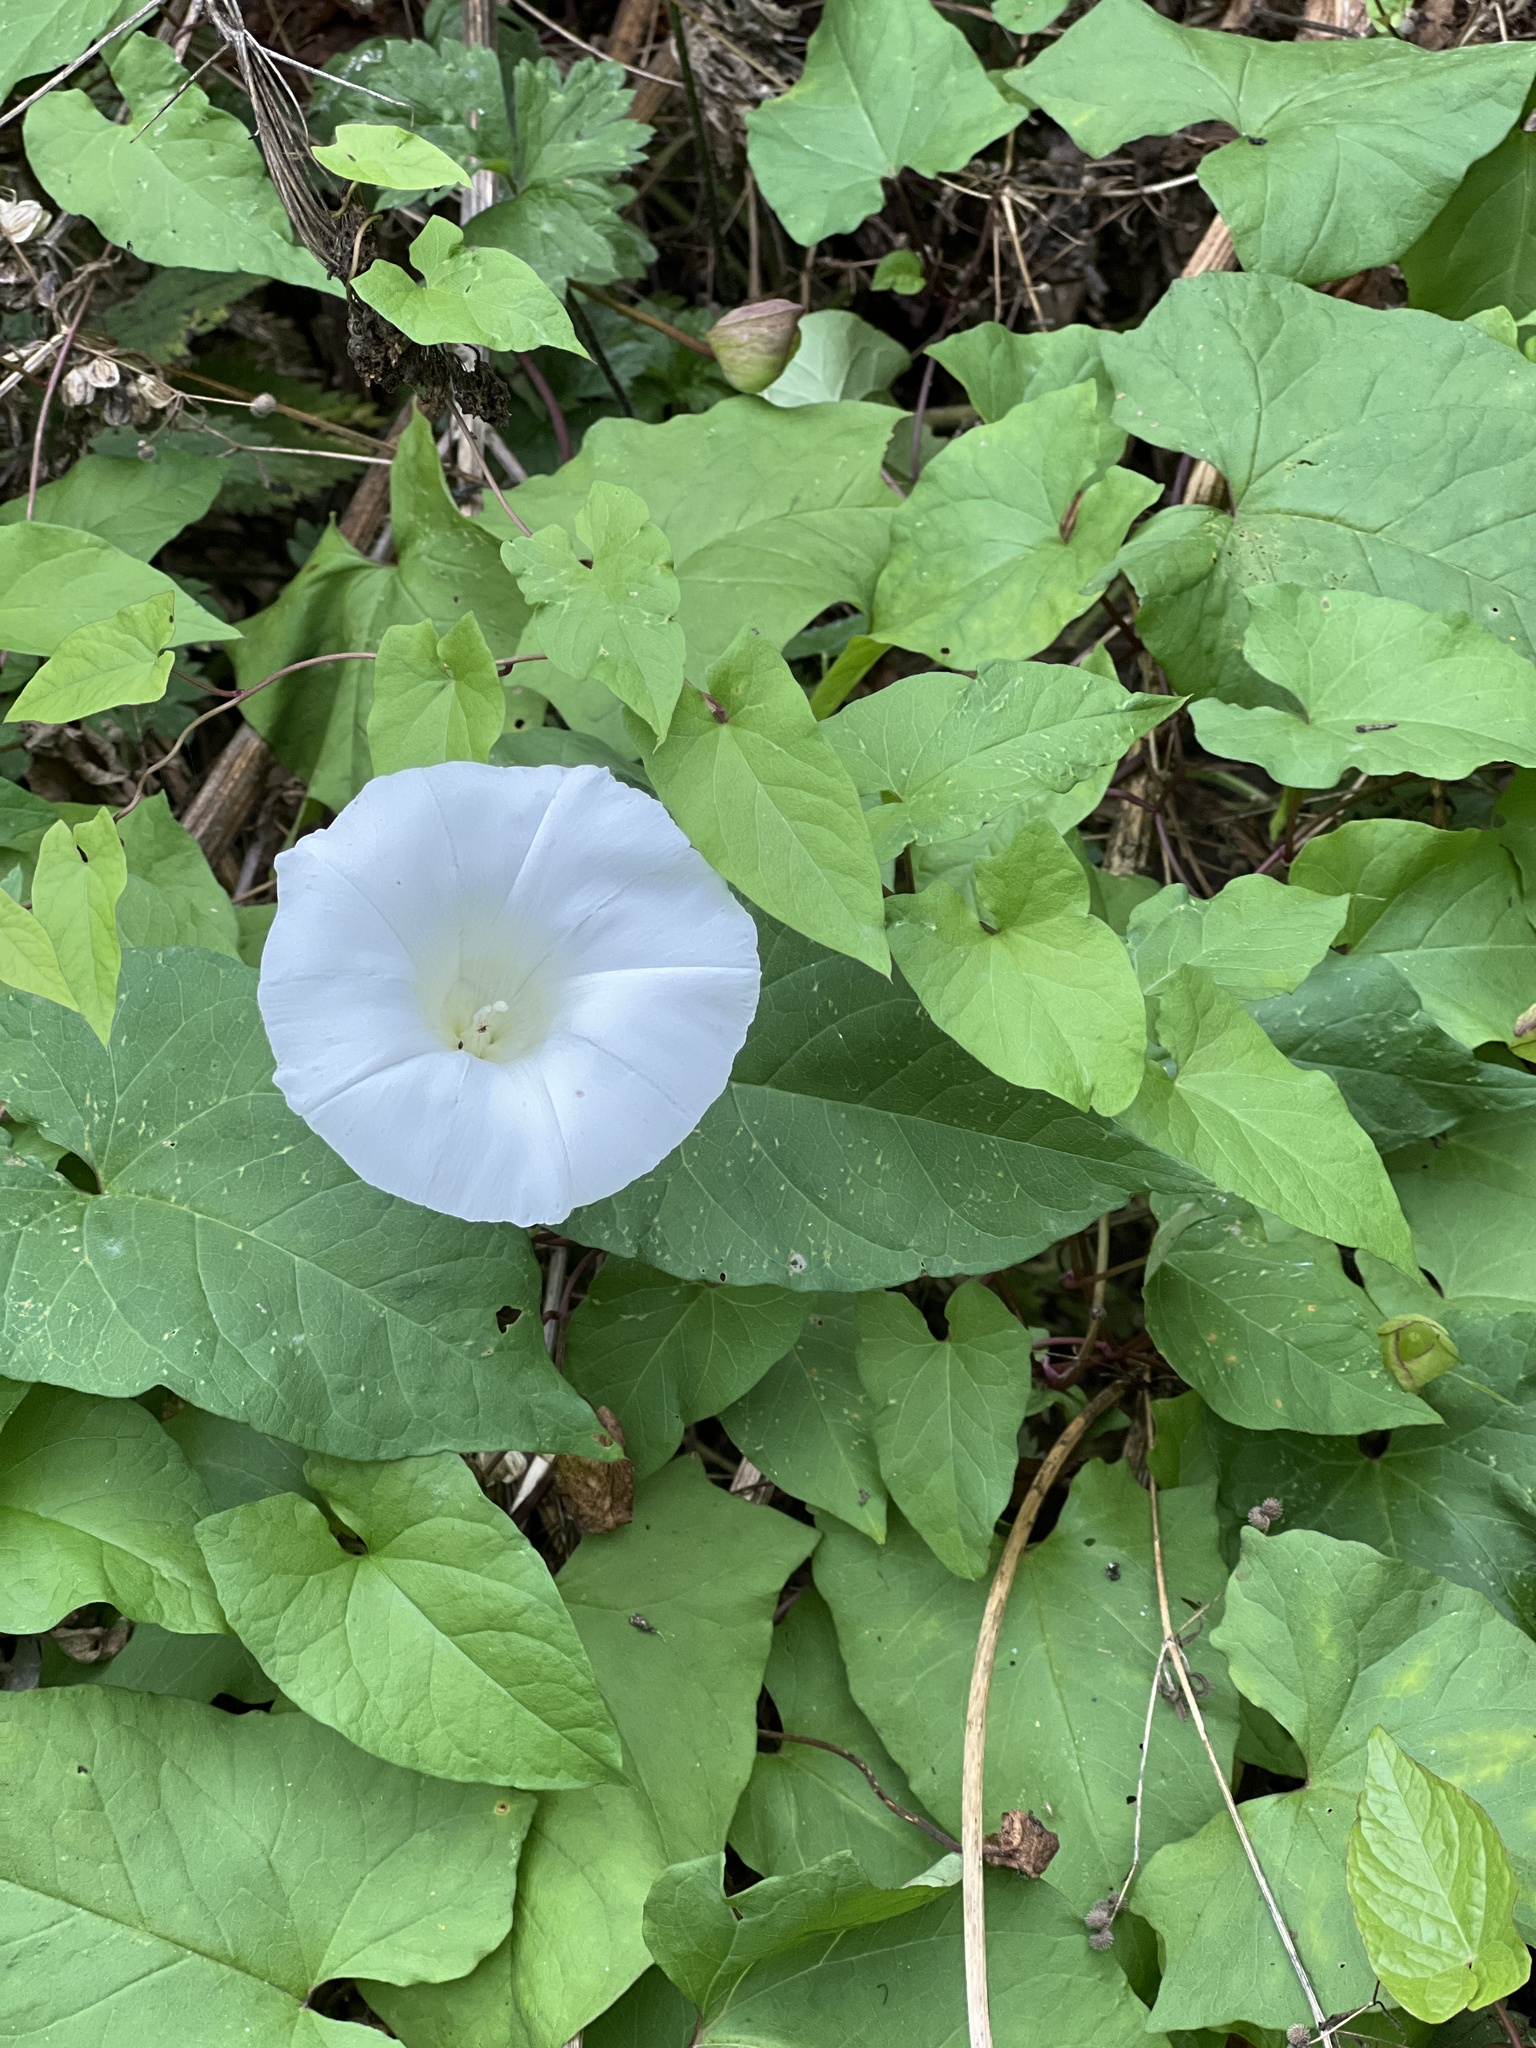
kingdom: Plantae
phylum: Tracheophyta
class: Magnoliopsida
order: Solanales
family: Convolvulaceae
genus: Calystegia
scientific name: Calystegia silvatica
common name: Large bindweed
